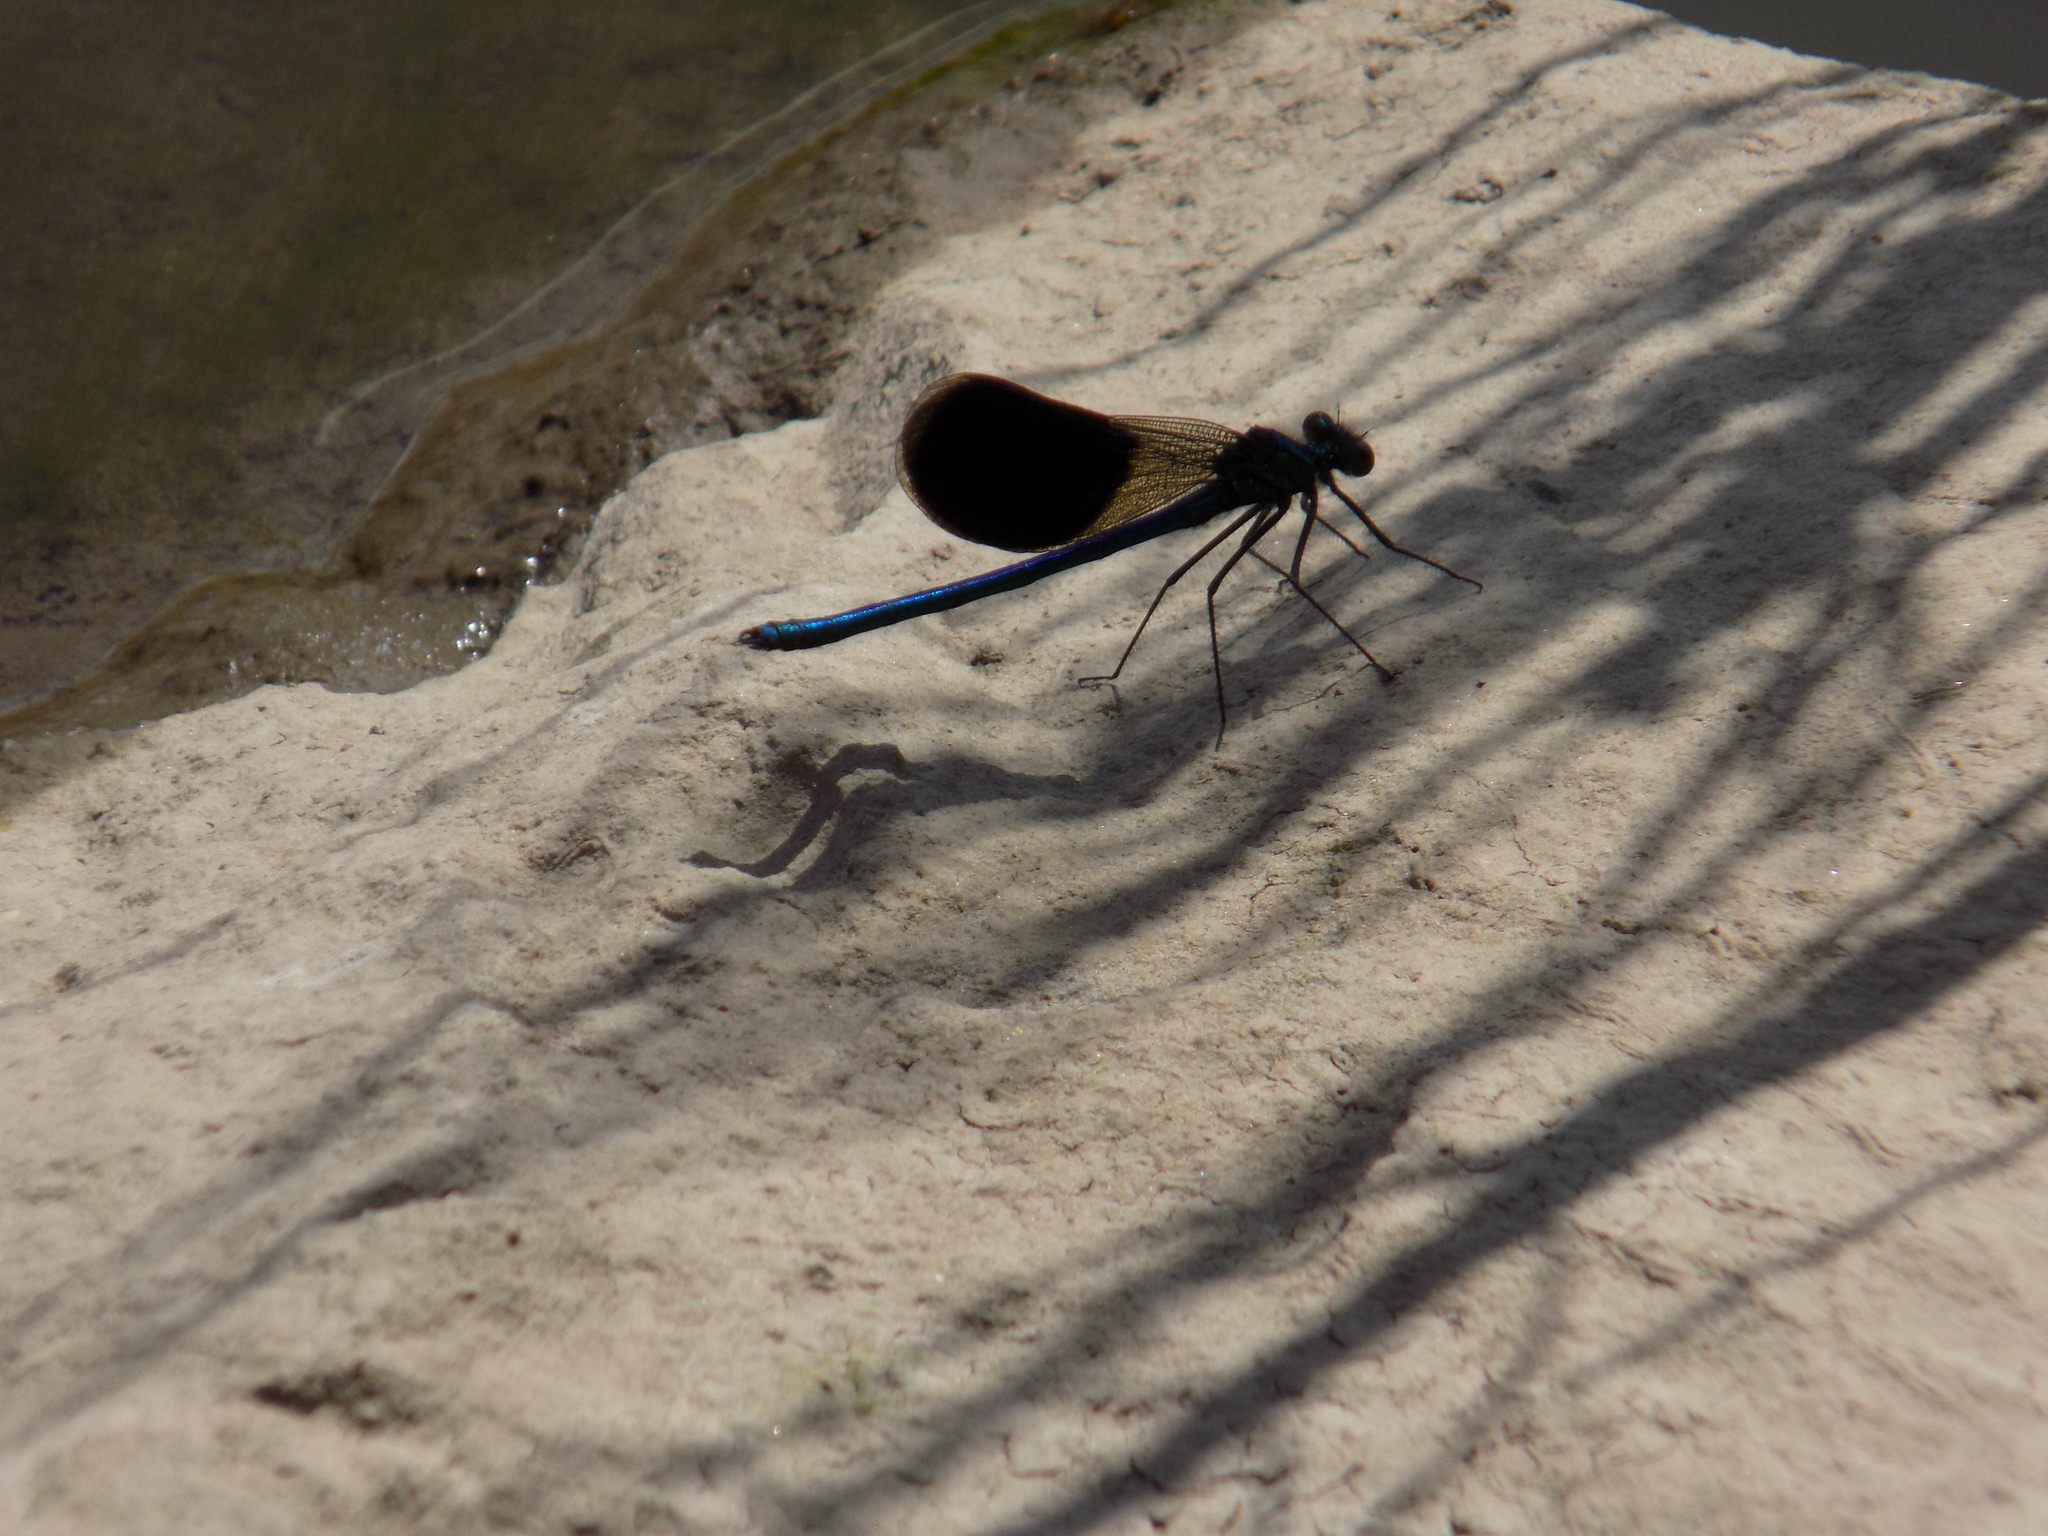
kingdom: Animalia
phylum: Arthropoda
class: Insecta
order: Odonata
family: Calopterygidae
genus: Calopteryx
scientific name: Calopteryx splendens
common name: Banded demoiselle
